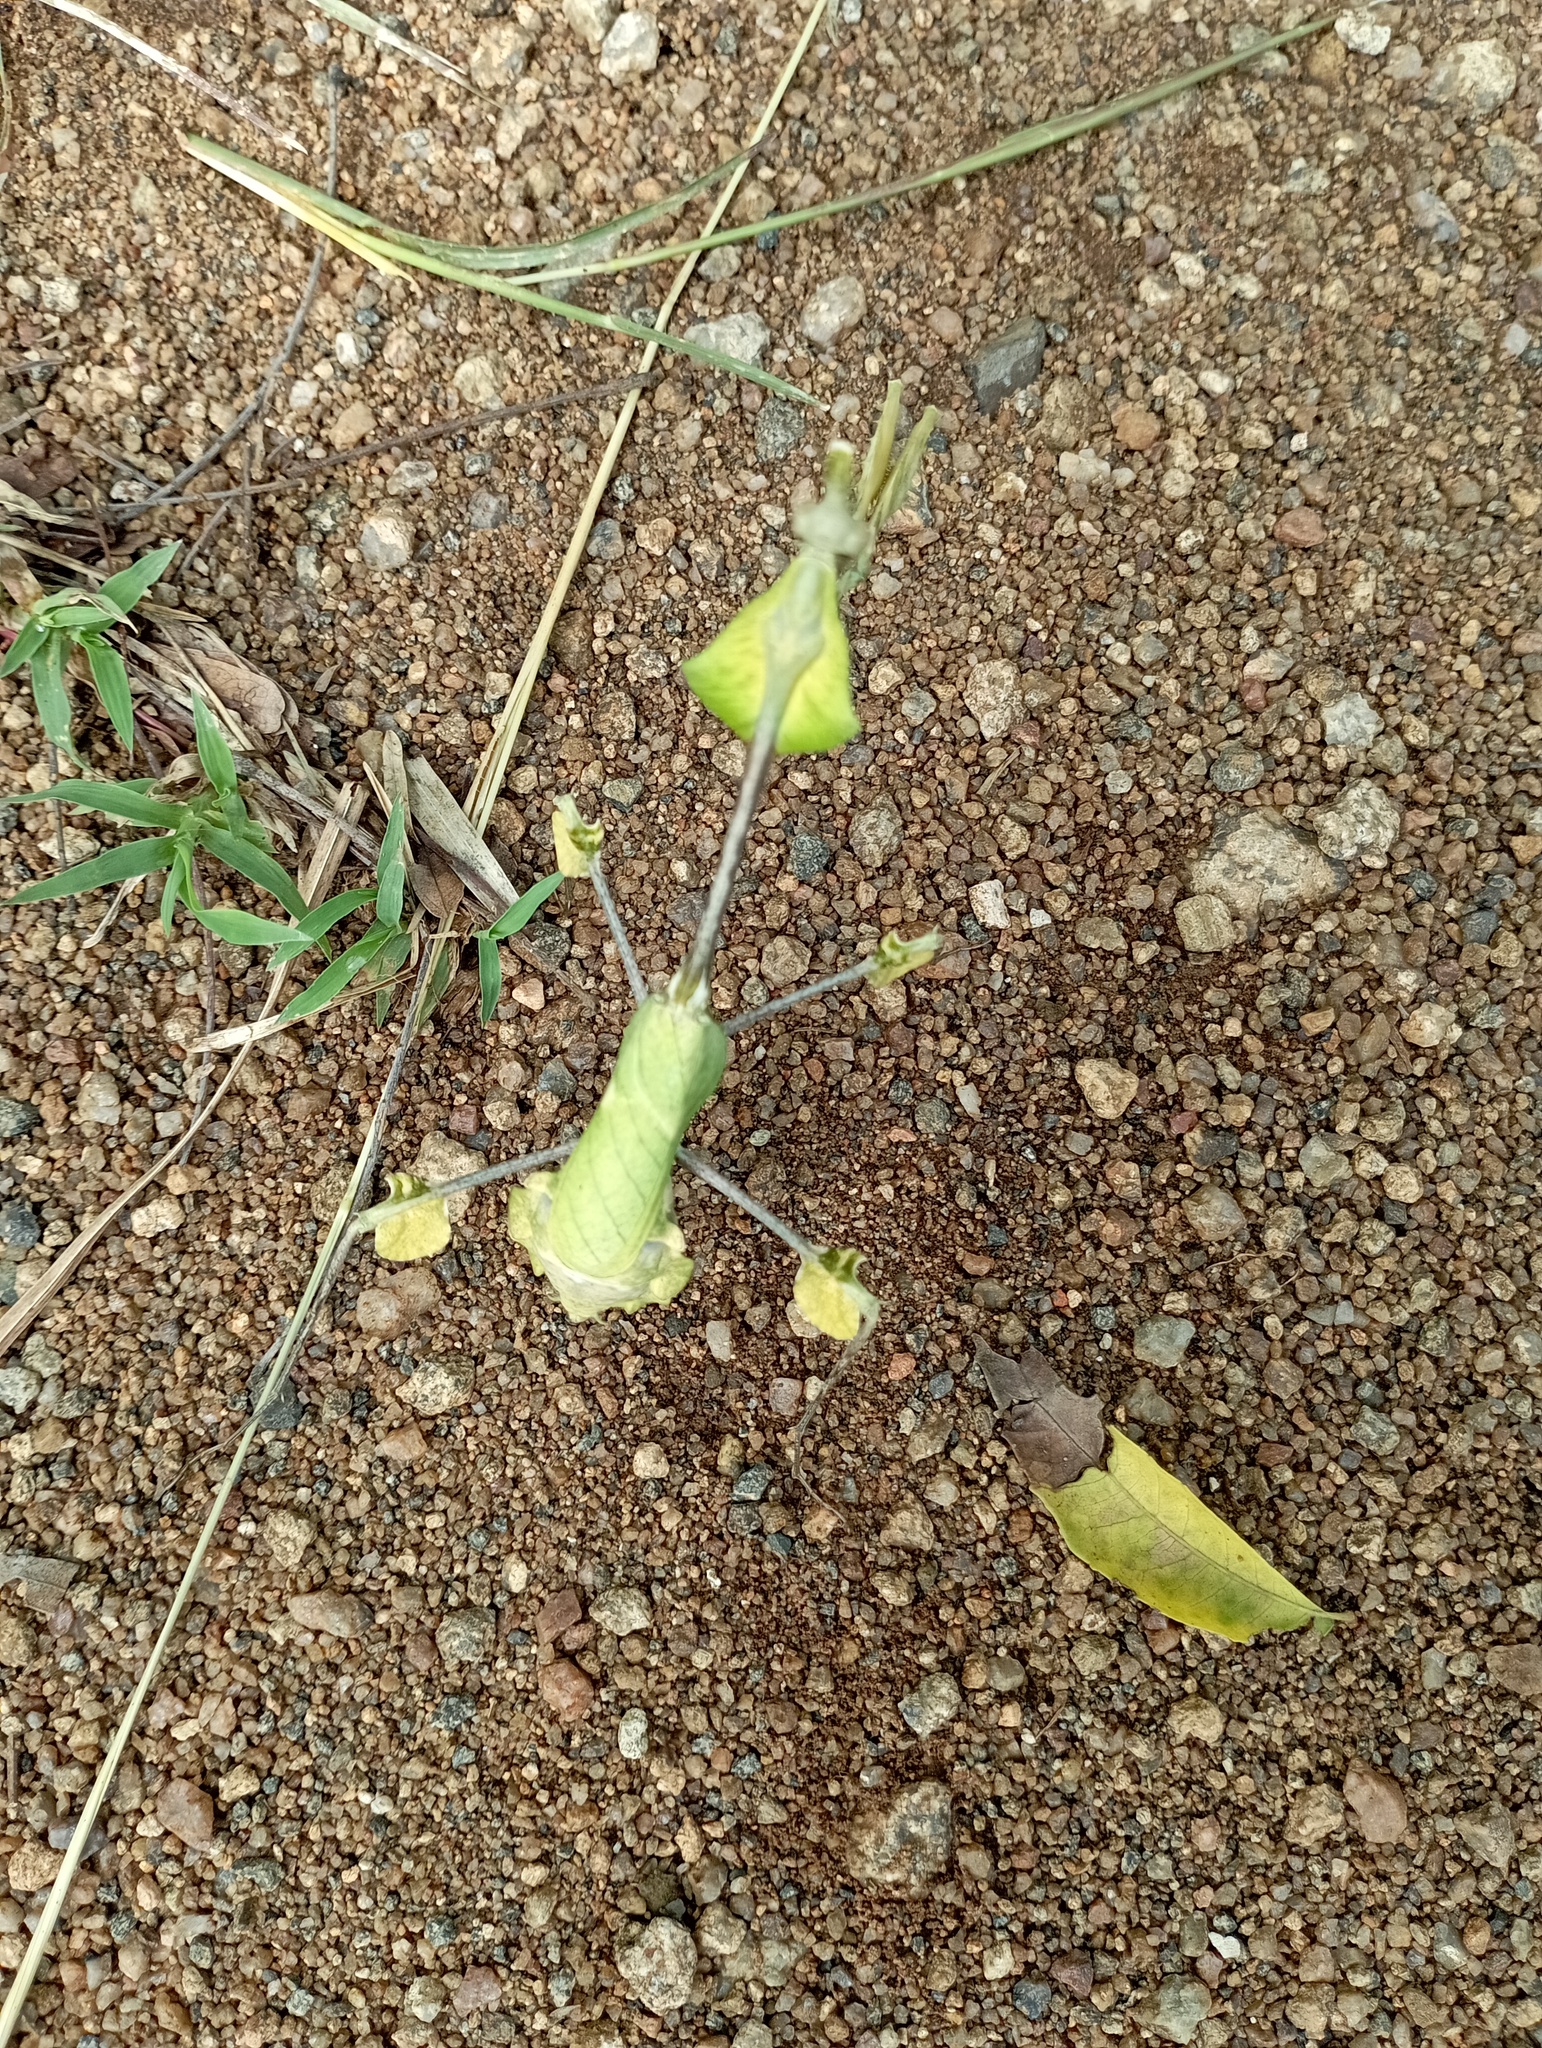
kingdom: Animalia
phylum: Arthropoda
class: Insecta
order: Mantodea
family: Empusidae
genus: Gongylus
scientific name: Gongylus gongylodes
